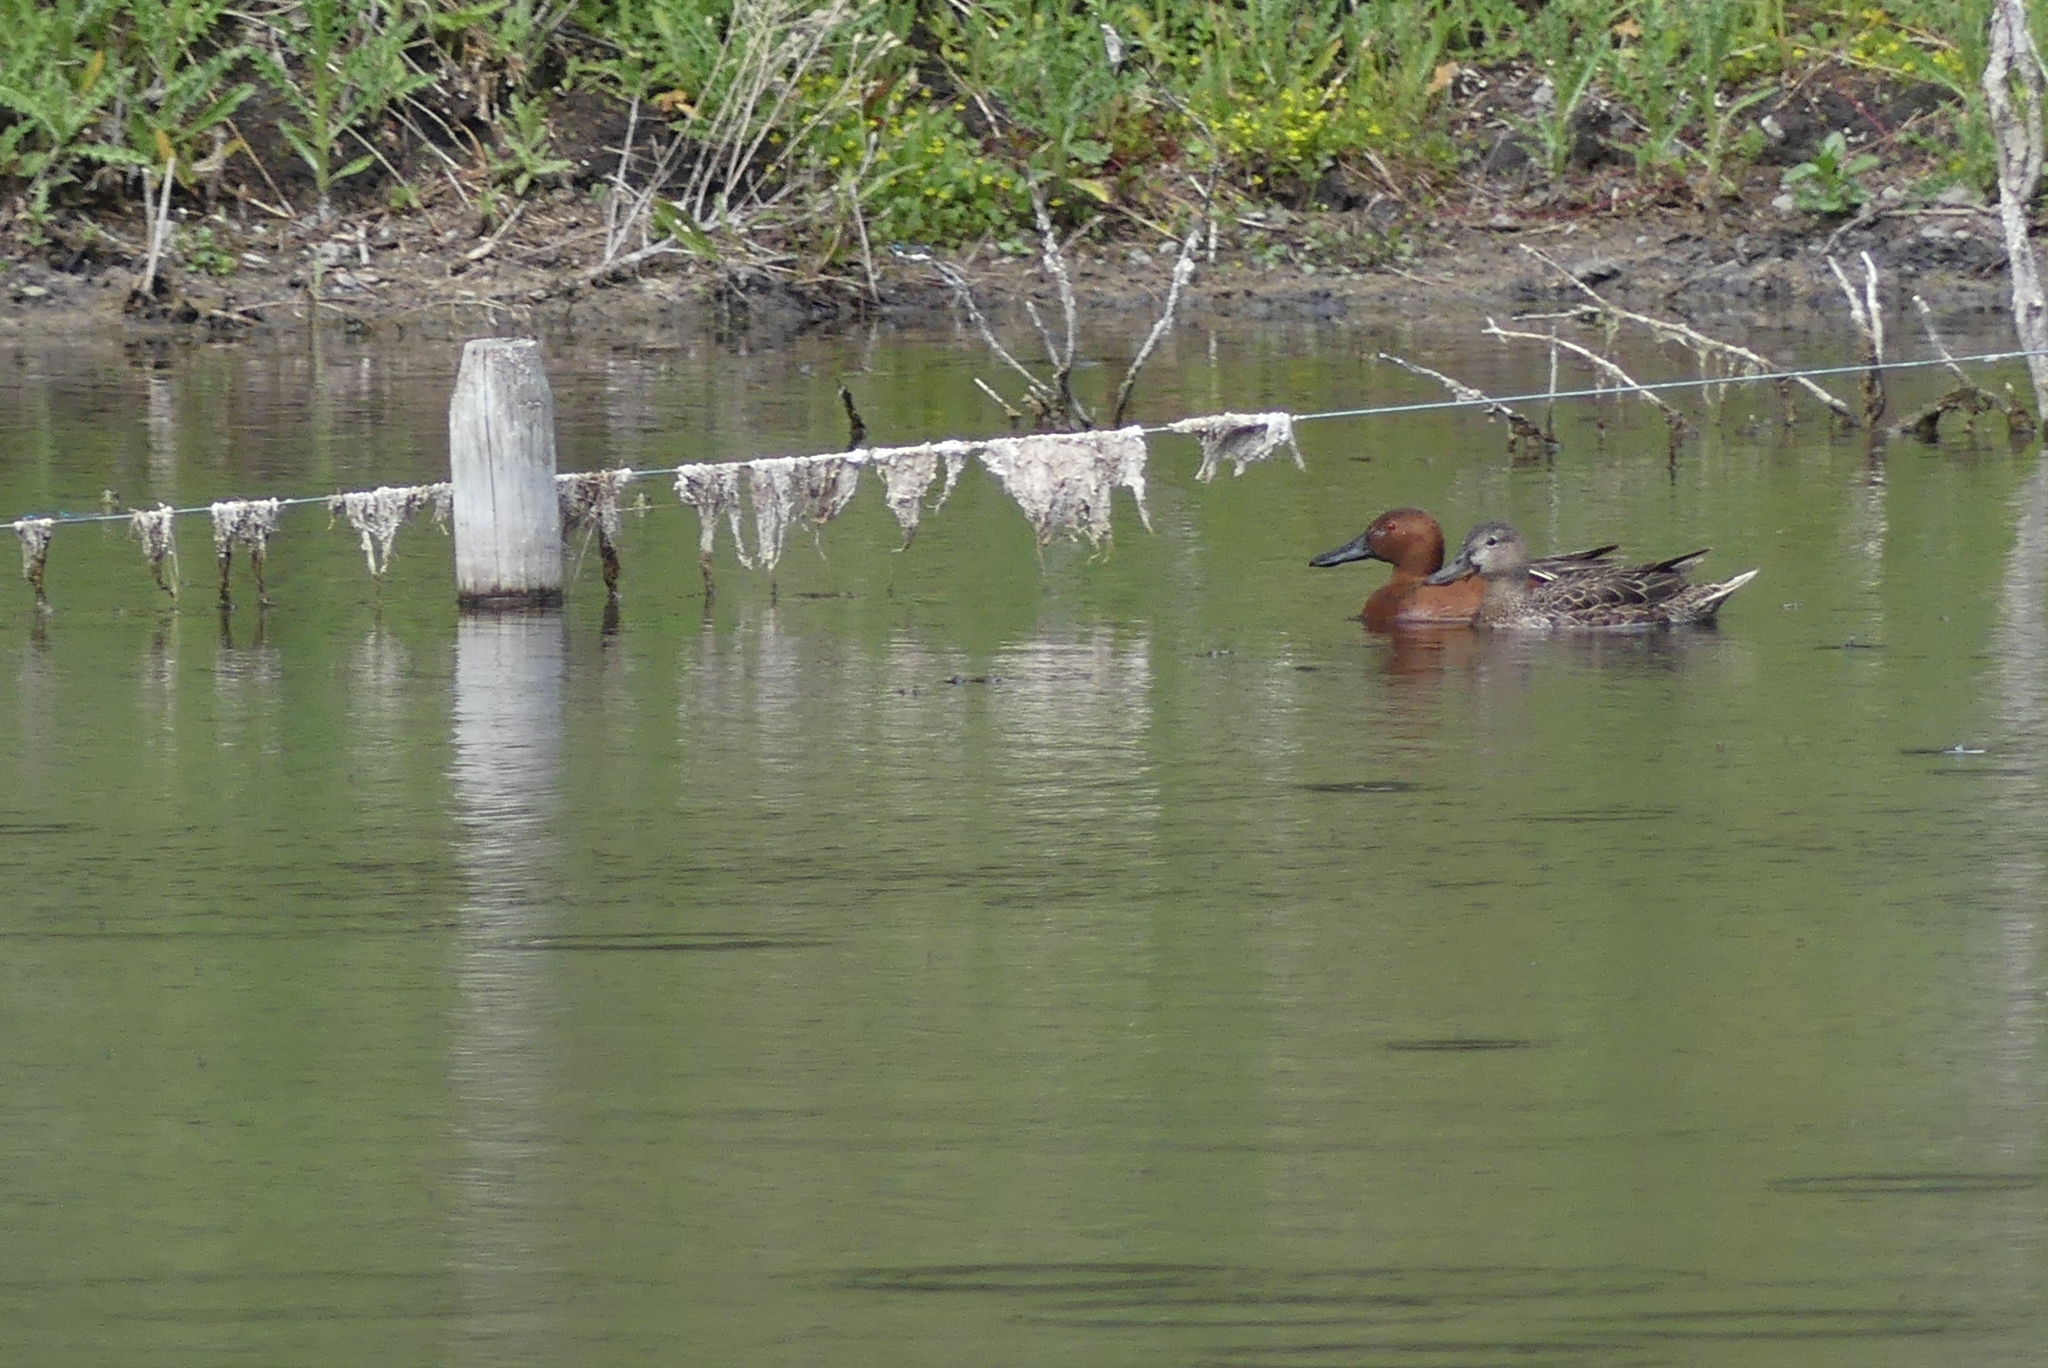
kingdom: Animalia
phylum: Chordata
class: Aves
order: Anseriformes
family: Anatidae
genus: Spatula
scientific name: Spatula cyanoptera
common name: Cinnamon teal
